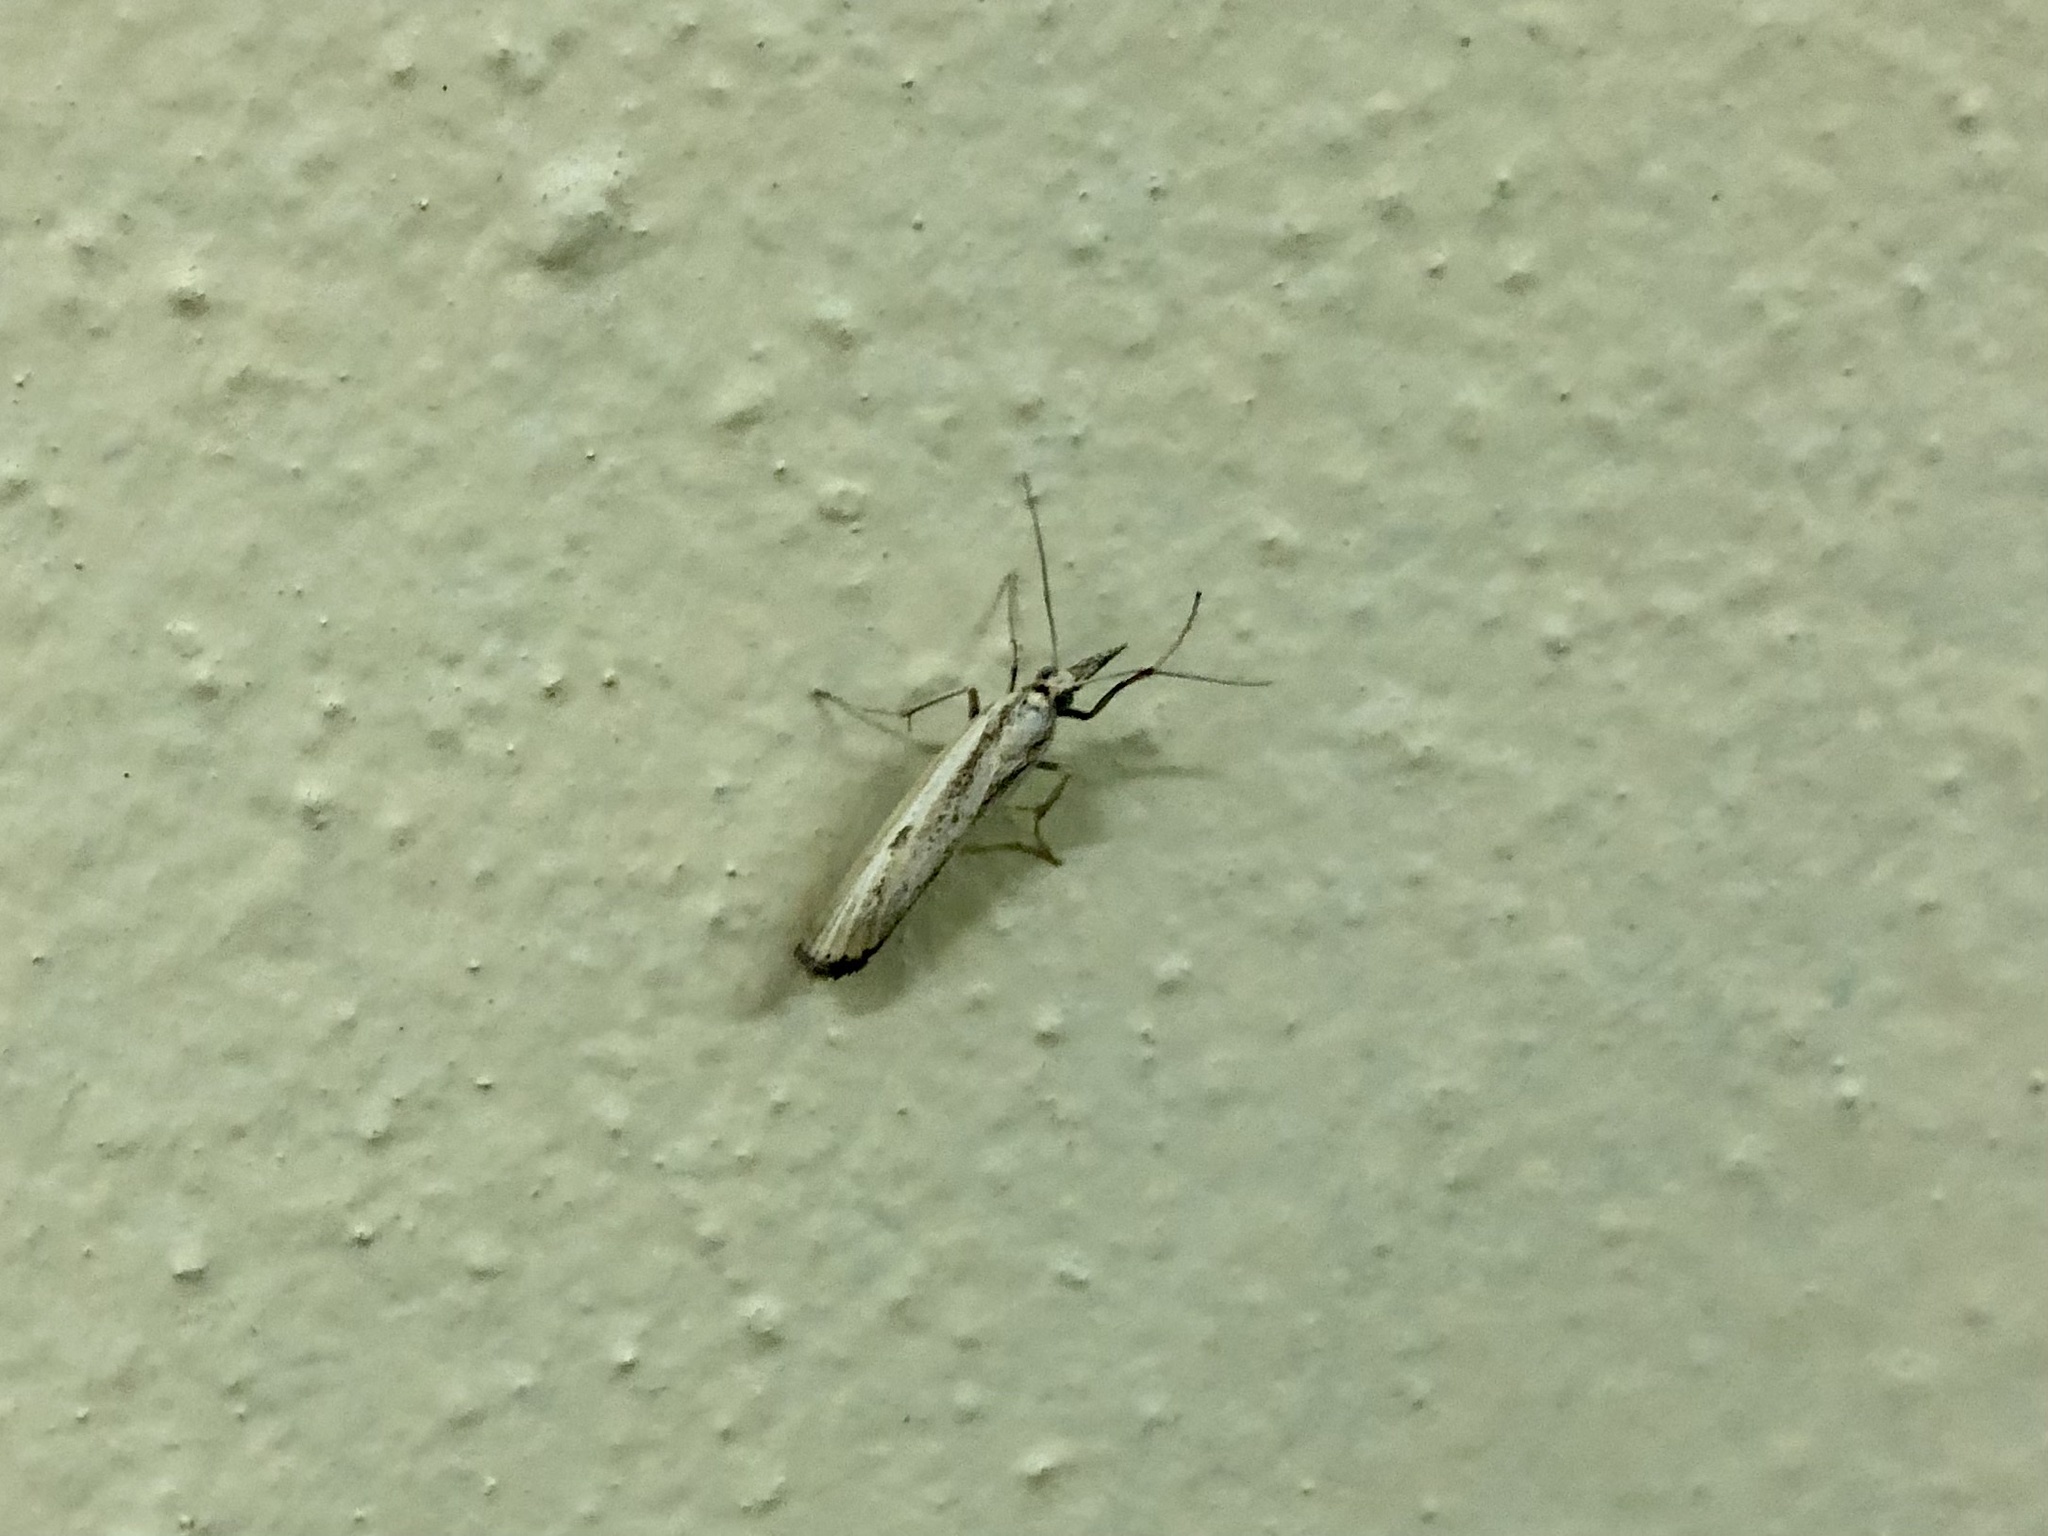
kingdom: Animalia
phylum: Arthropoda
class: Insecta
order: Lepidoptera
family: Crambidae
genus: Agriphila
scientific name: Agriphila inquinatella
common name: Barred grass-veneer
